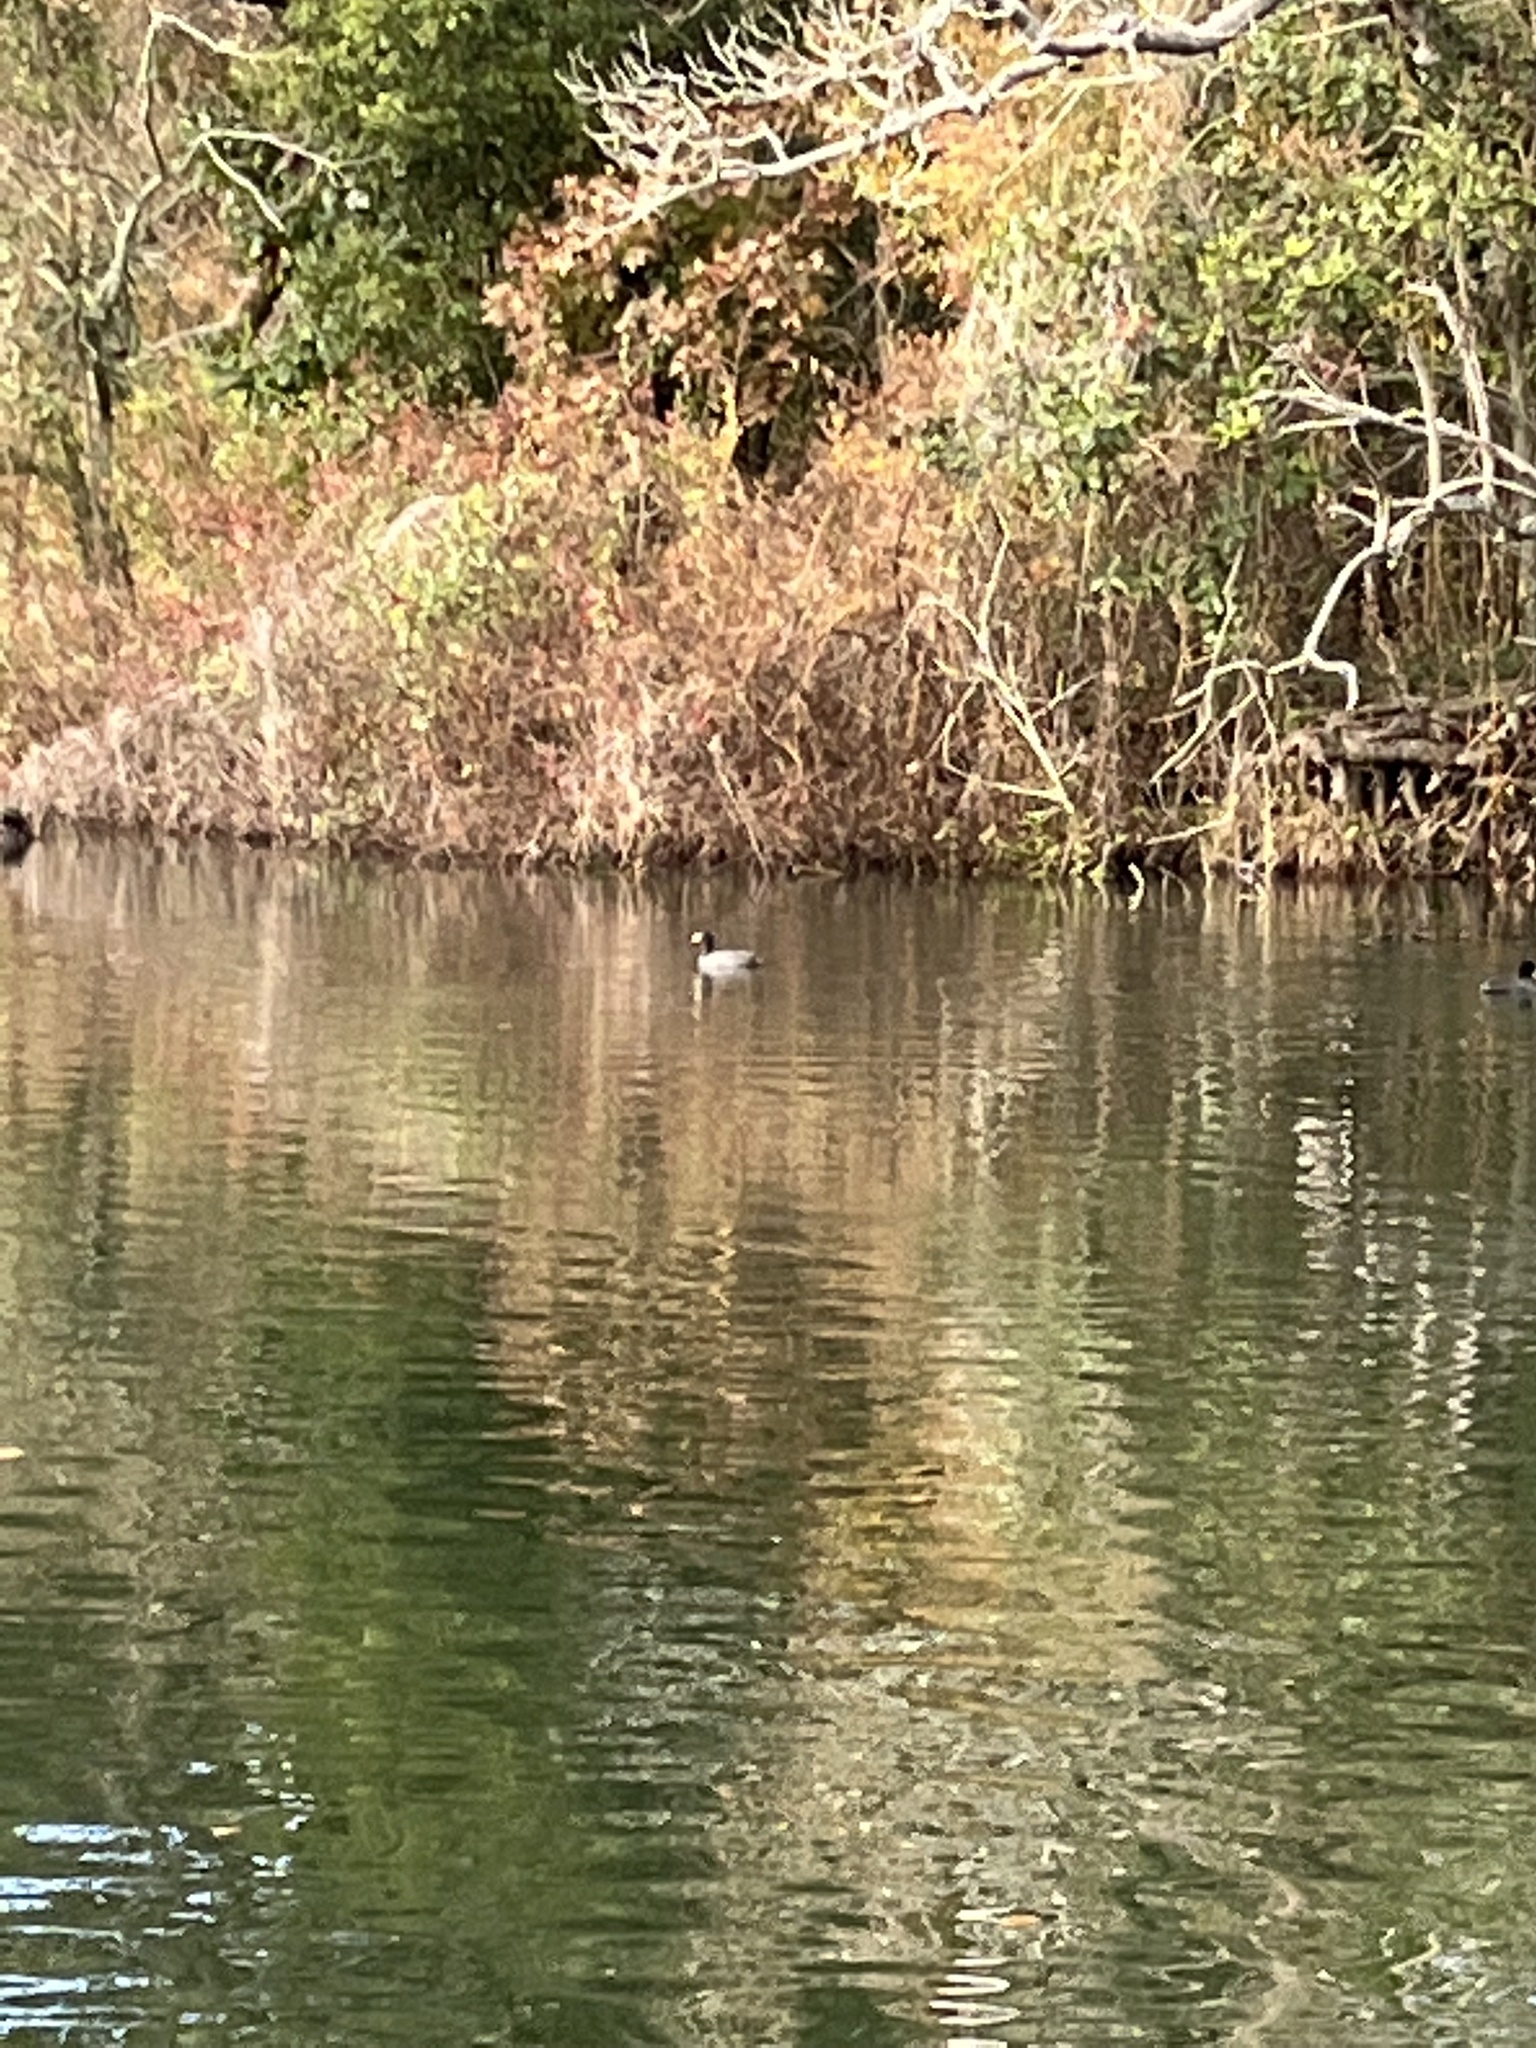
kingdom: Animalia
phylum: Chordata
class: Aves
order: Gruiformes
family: Rallidae
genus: Fulica
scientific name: Fulica americana
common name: American coot
